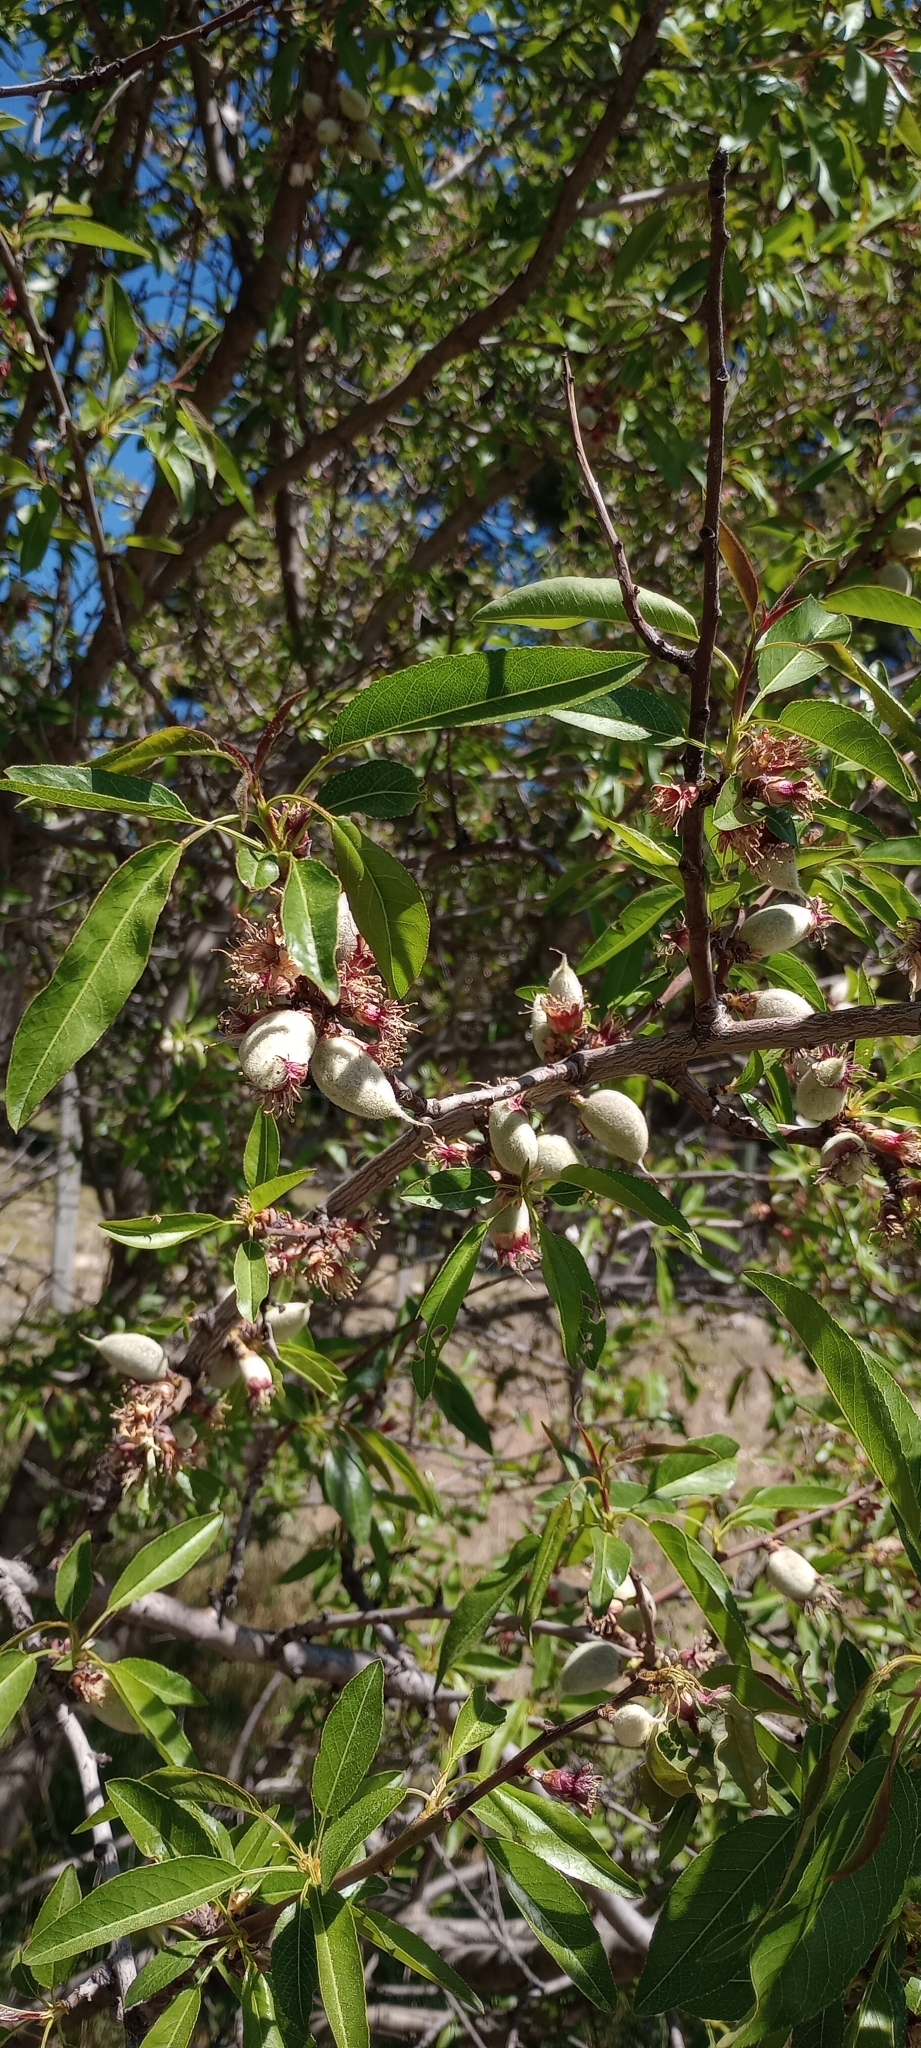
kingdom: Plantae
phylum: Tracheophyta
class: Magnoliopsida
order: Rosales
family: Rosaceae
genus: Prunus
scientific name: Prunus amygdalus
